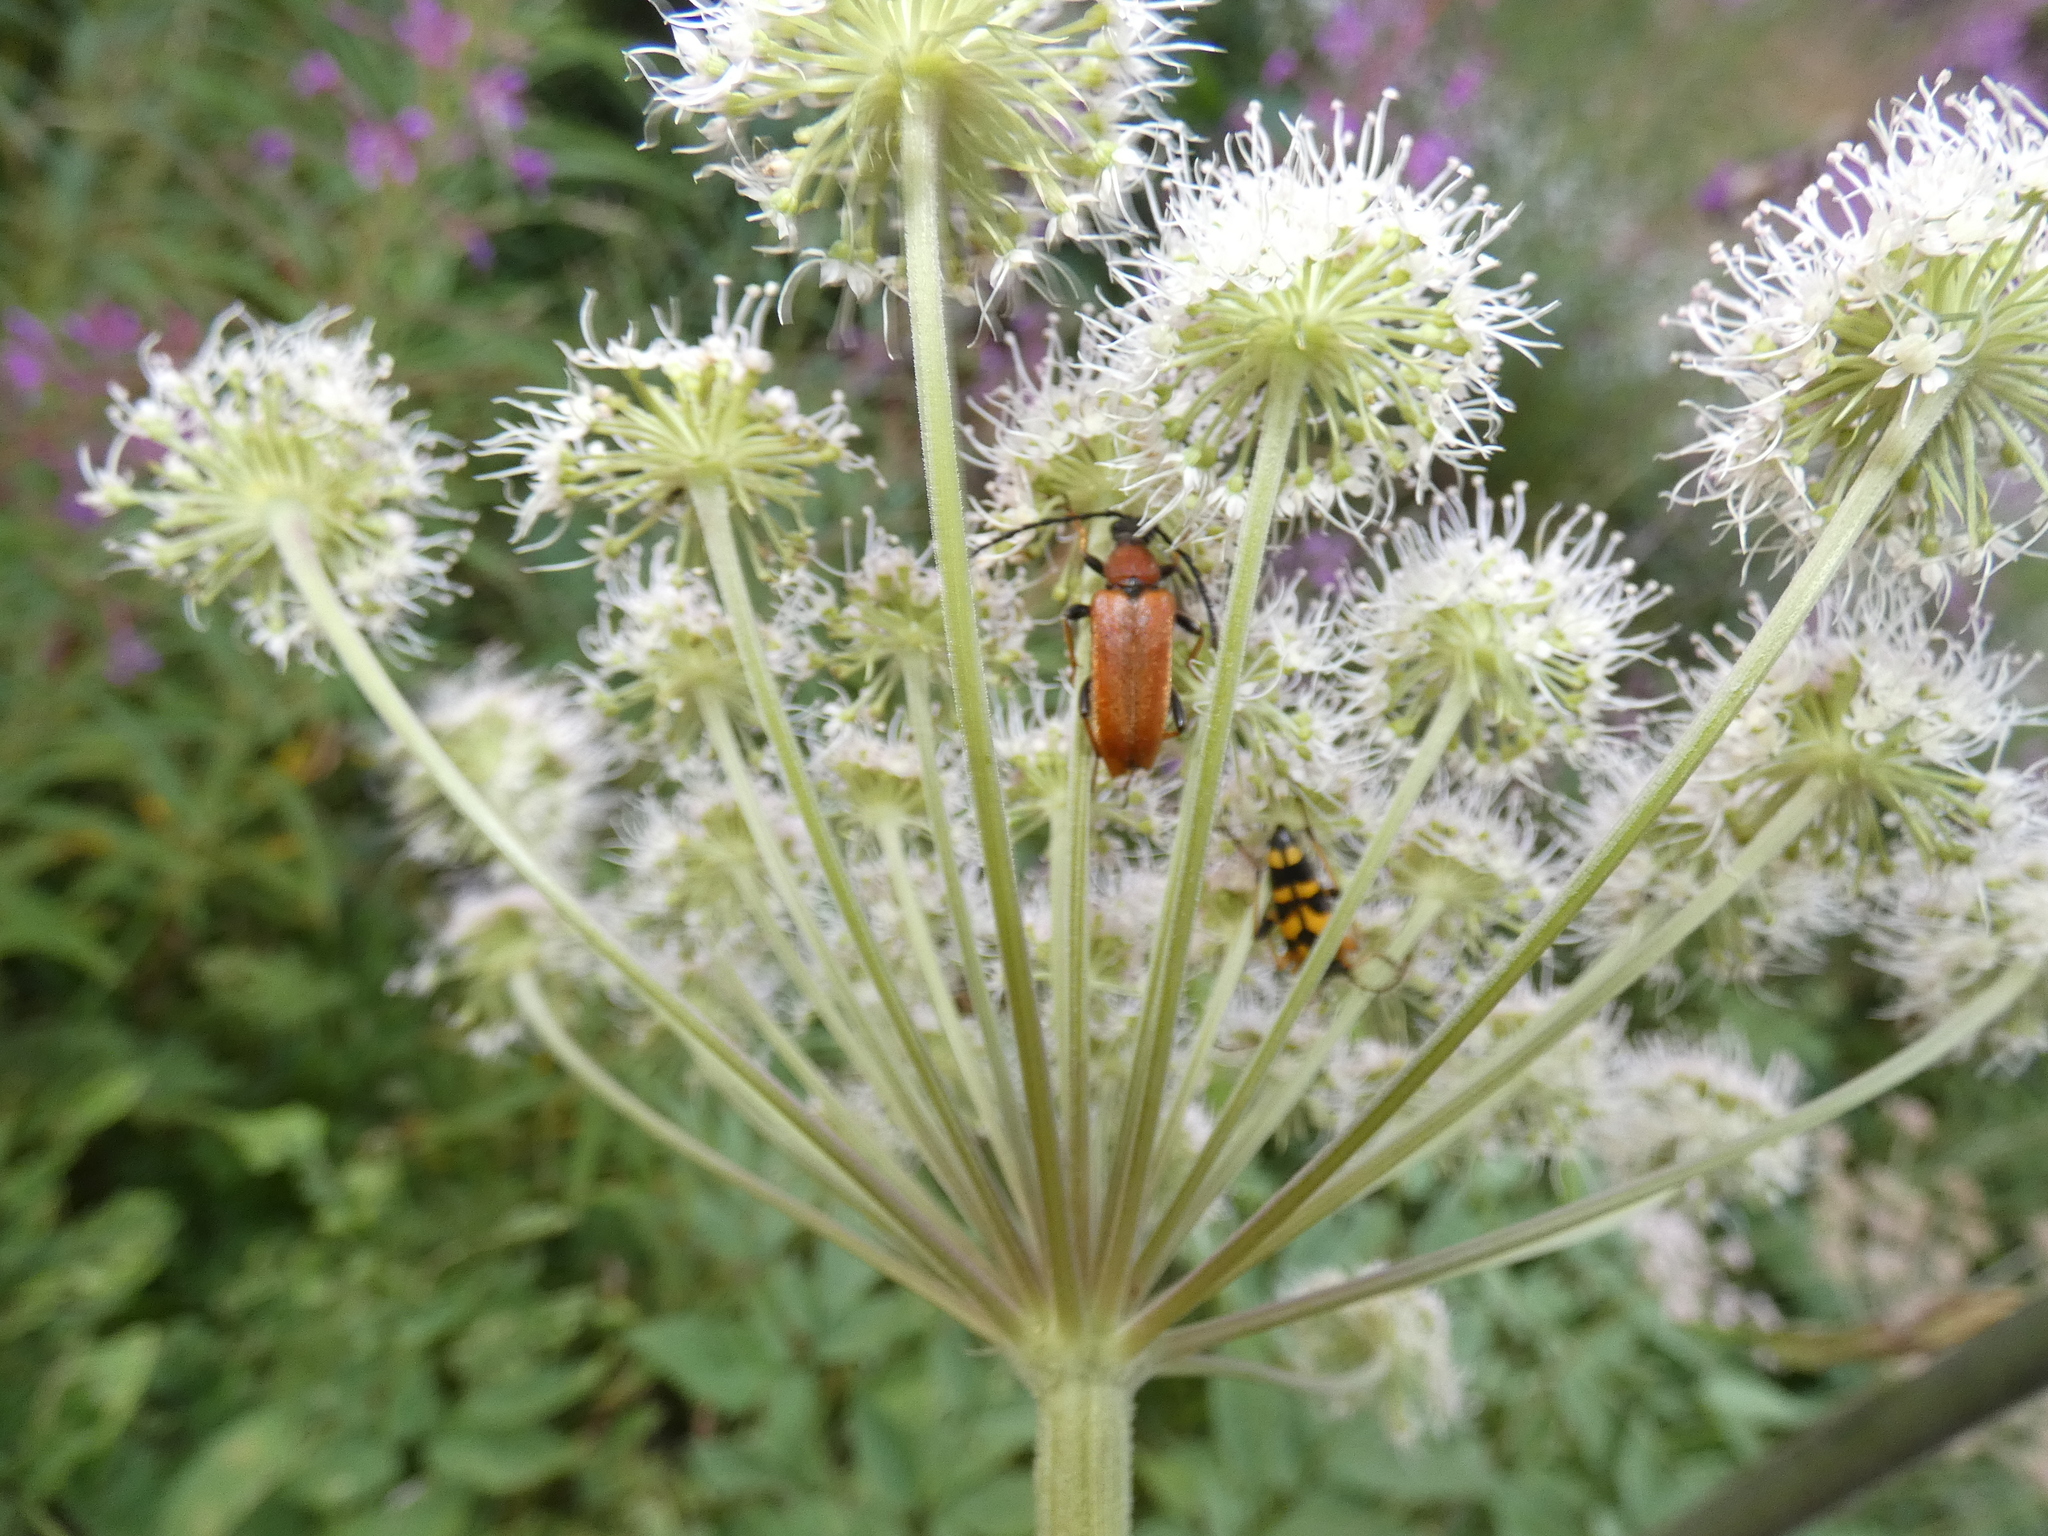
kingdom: Animalia
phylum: Arthropoda
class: Insecta
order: Coleoptera
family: Cerambycidae
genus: Stictoleptura
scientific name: Stictoleptura rubra
